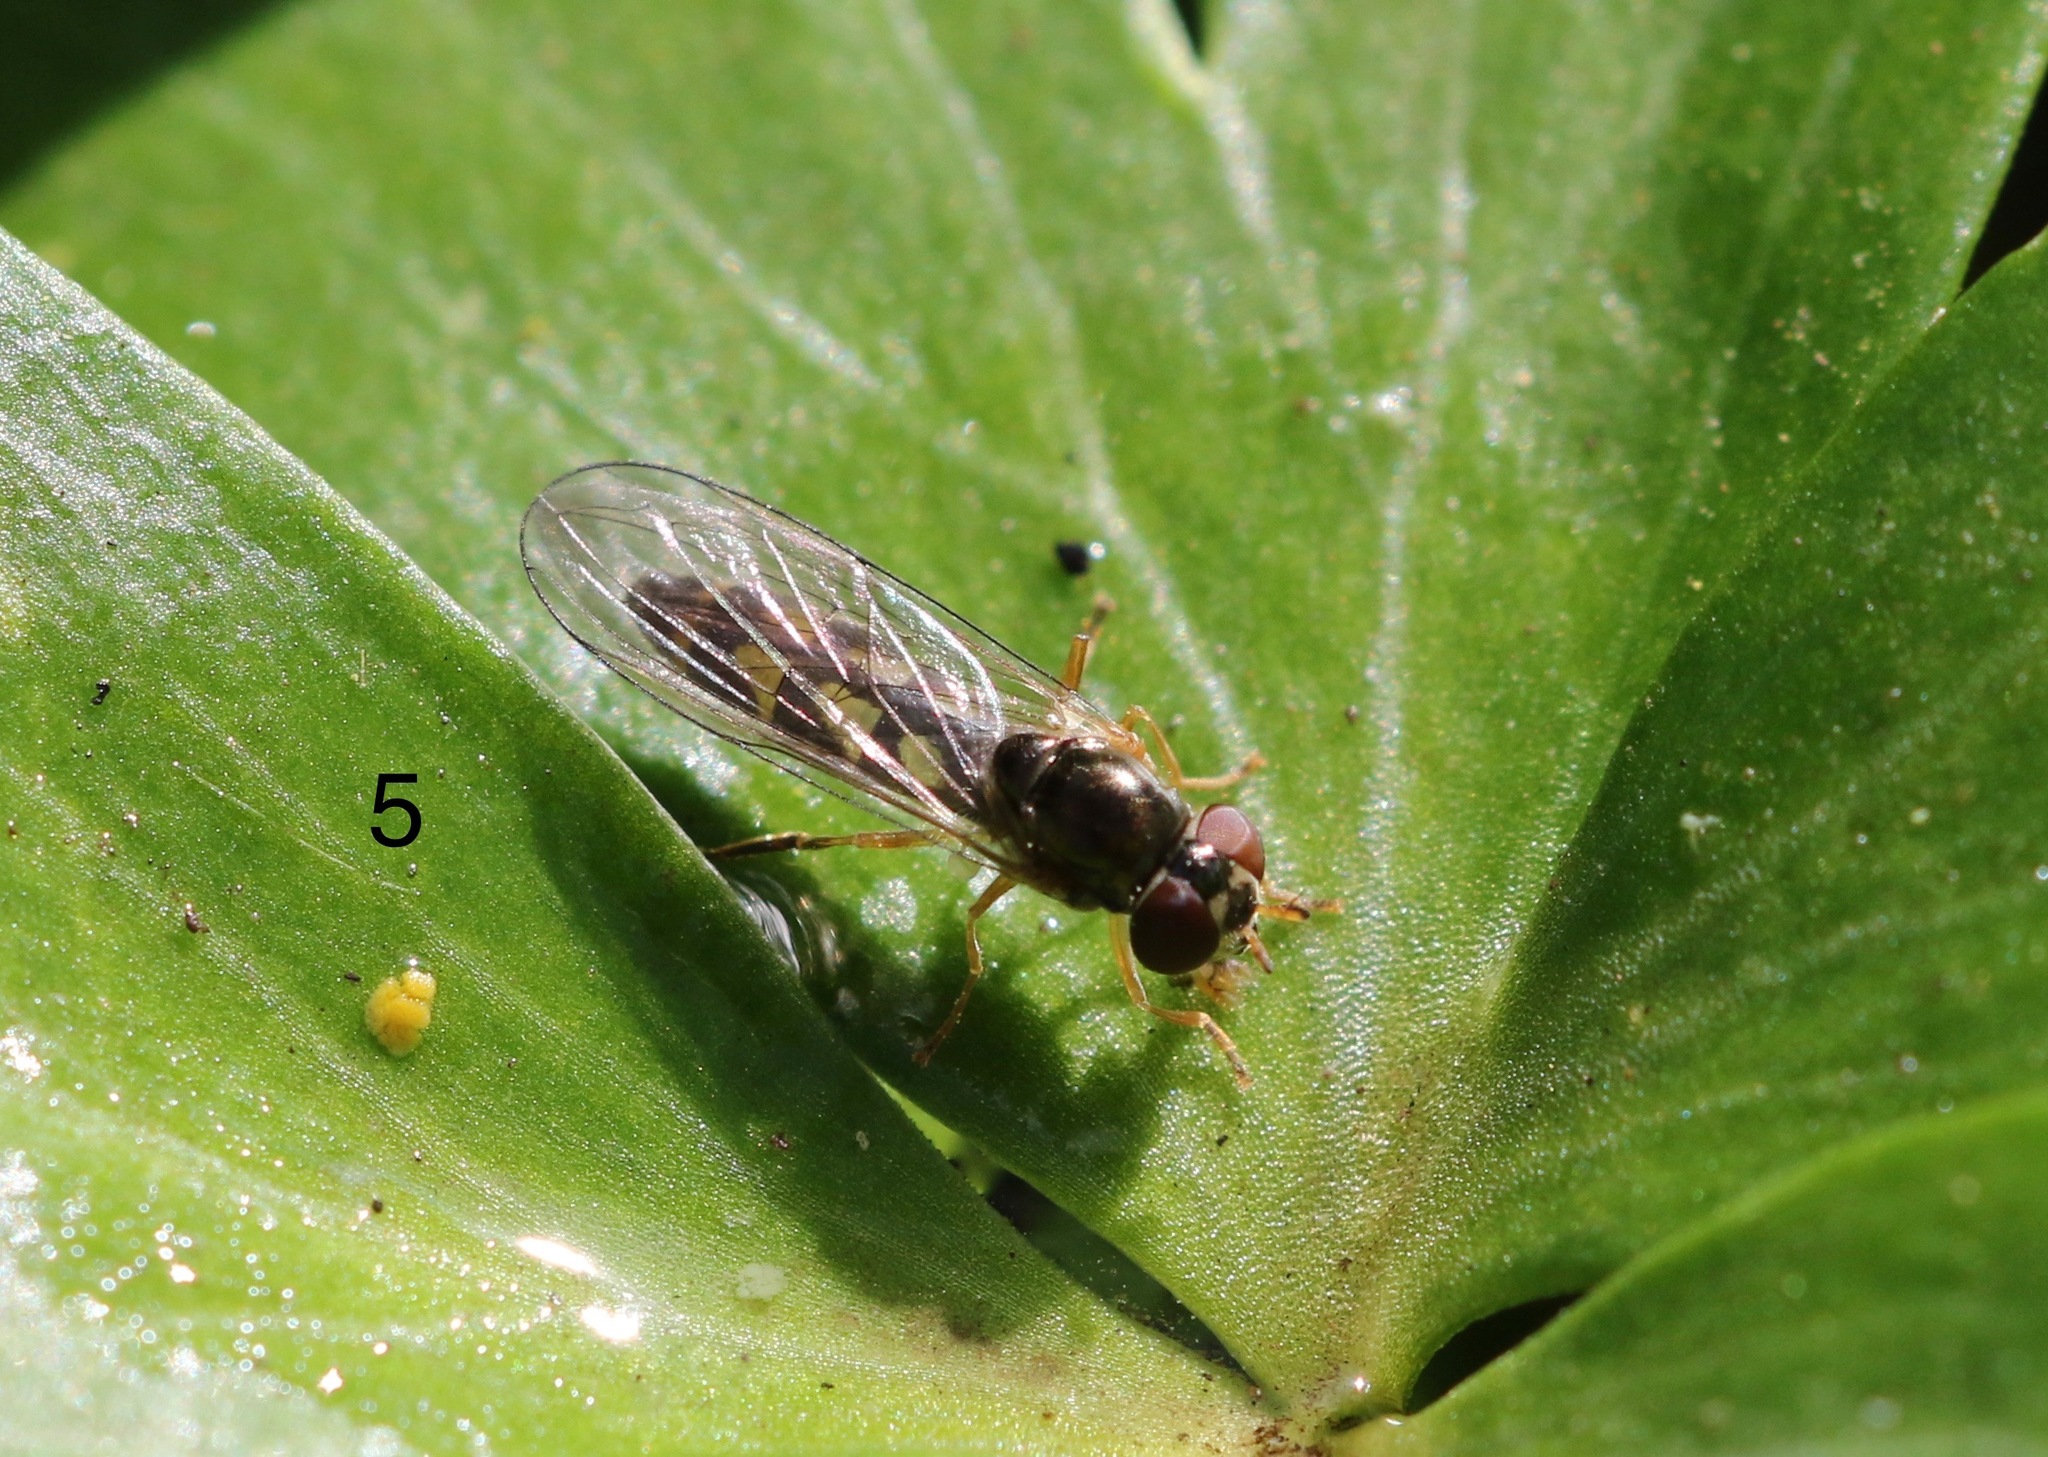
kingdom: Animalia
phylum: Arthropoda
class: Insecta
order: Diptera
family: Syrphidae
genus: Melanostoma
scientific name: Melanostoma scalare
